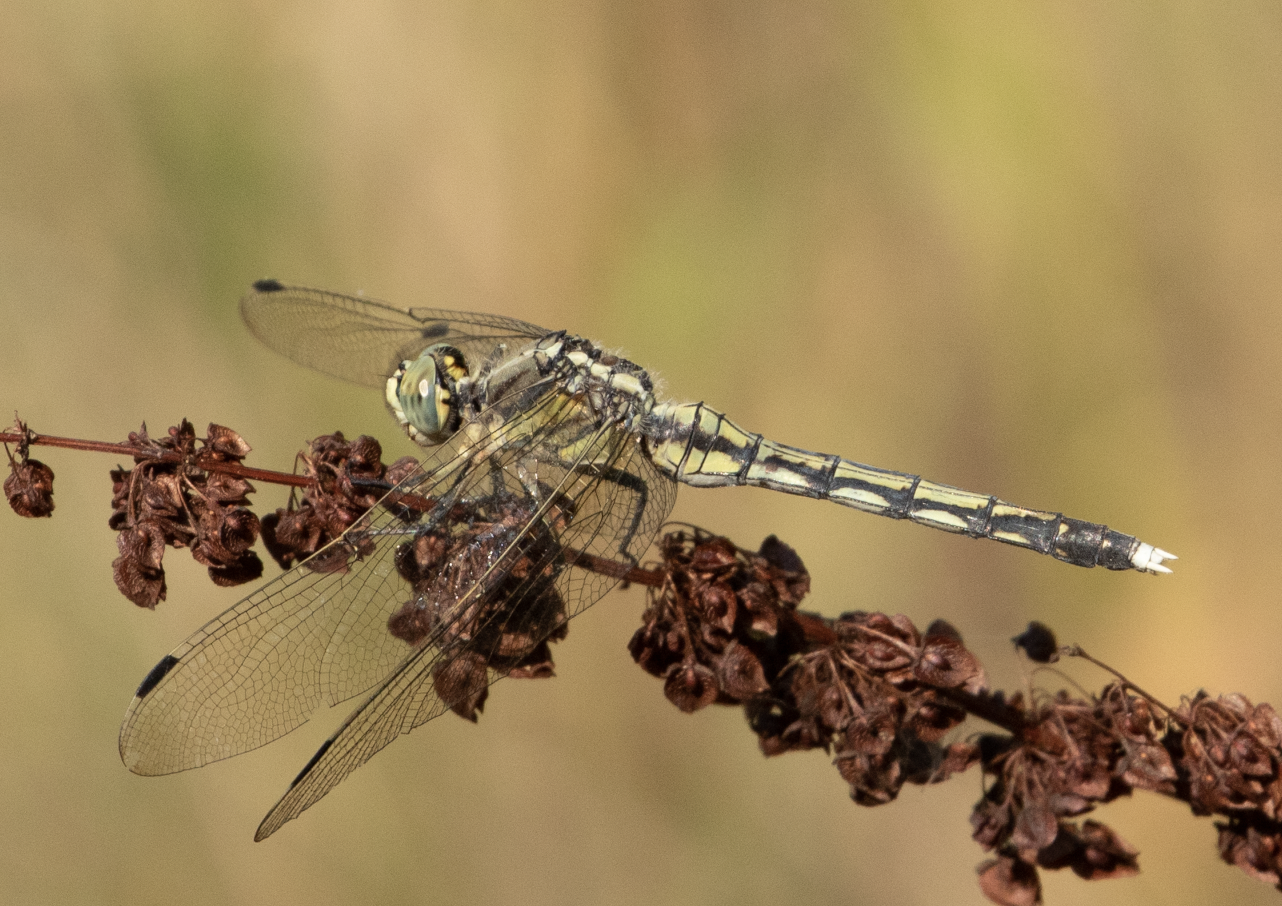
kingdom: Animalia
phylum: Arthropoda
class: Insecta
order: Odonata
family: Libellulidae
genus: Orthetrum
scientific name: Orthetrum albistylum
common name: White-tailed skimmer
